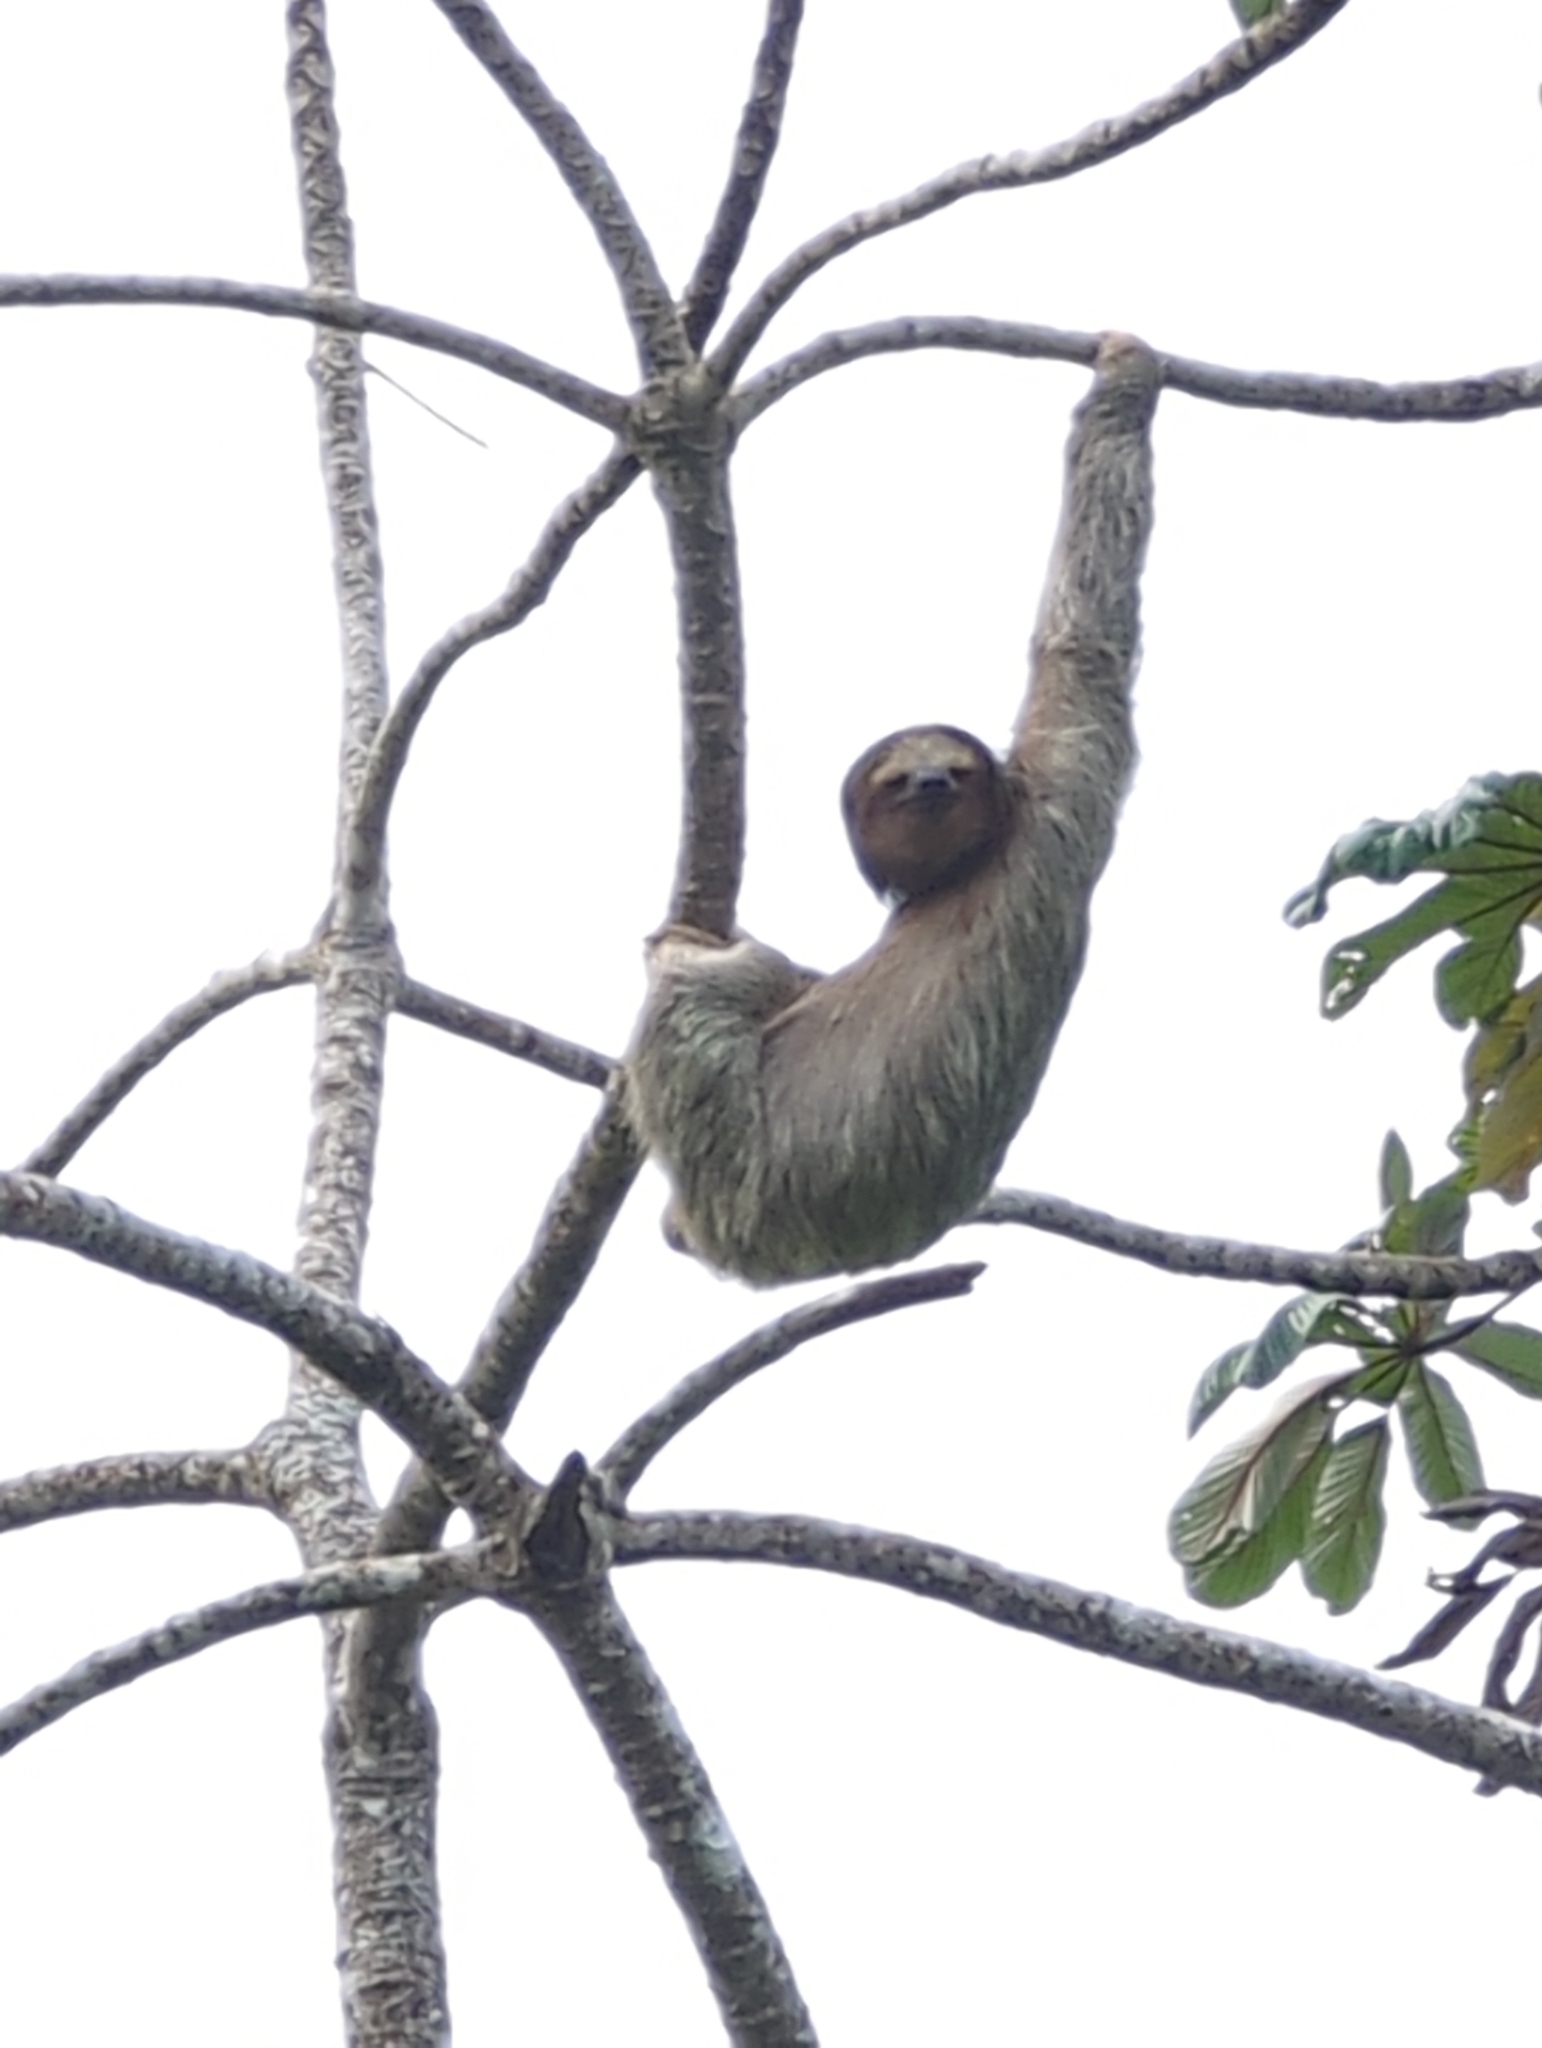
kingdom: Animalia
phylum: Chordata
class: Mammalia
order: Pilosa
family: Bradypodidae
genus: Bradypus
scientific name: Bradypus variegatus
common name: Brown-throated three-toed sloth
